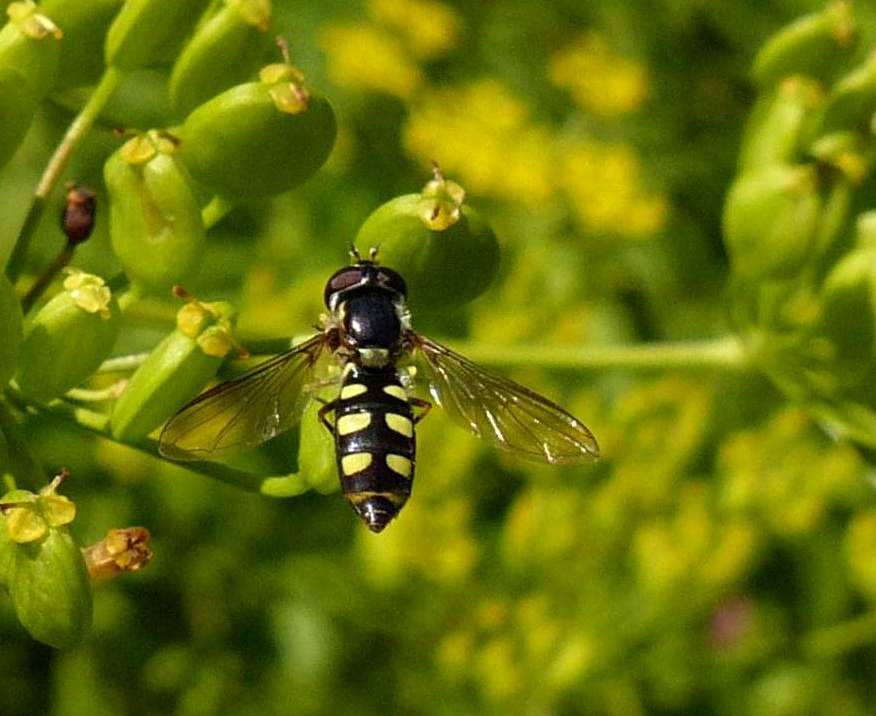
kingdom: Animalia
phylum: Arthropoda
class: Insecta
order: Diptera
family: Syrphidae
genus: Epistrophella
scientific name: Epistrophella emarginata
